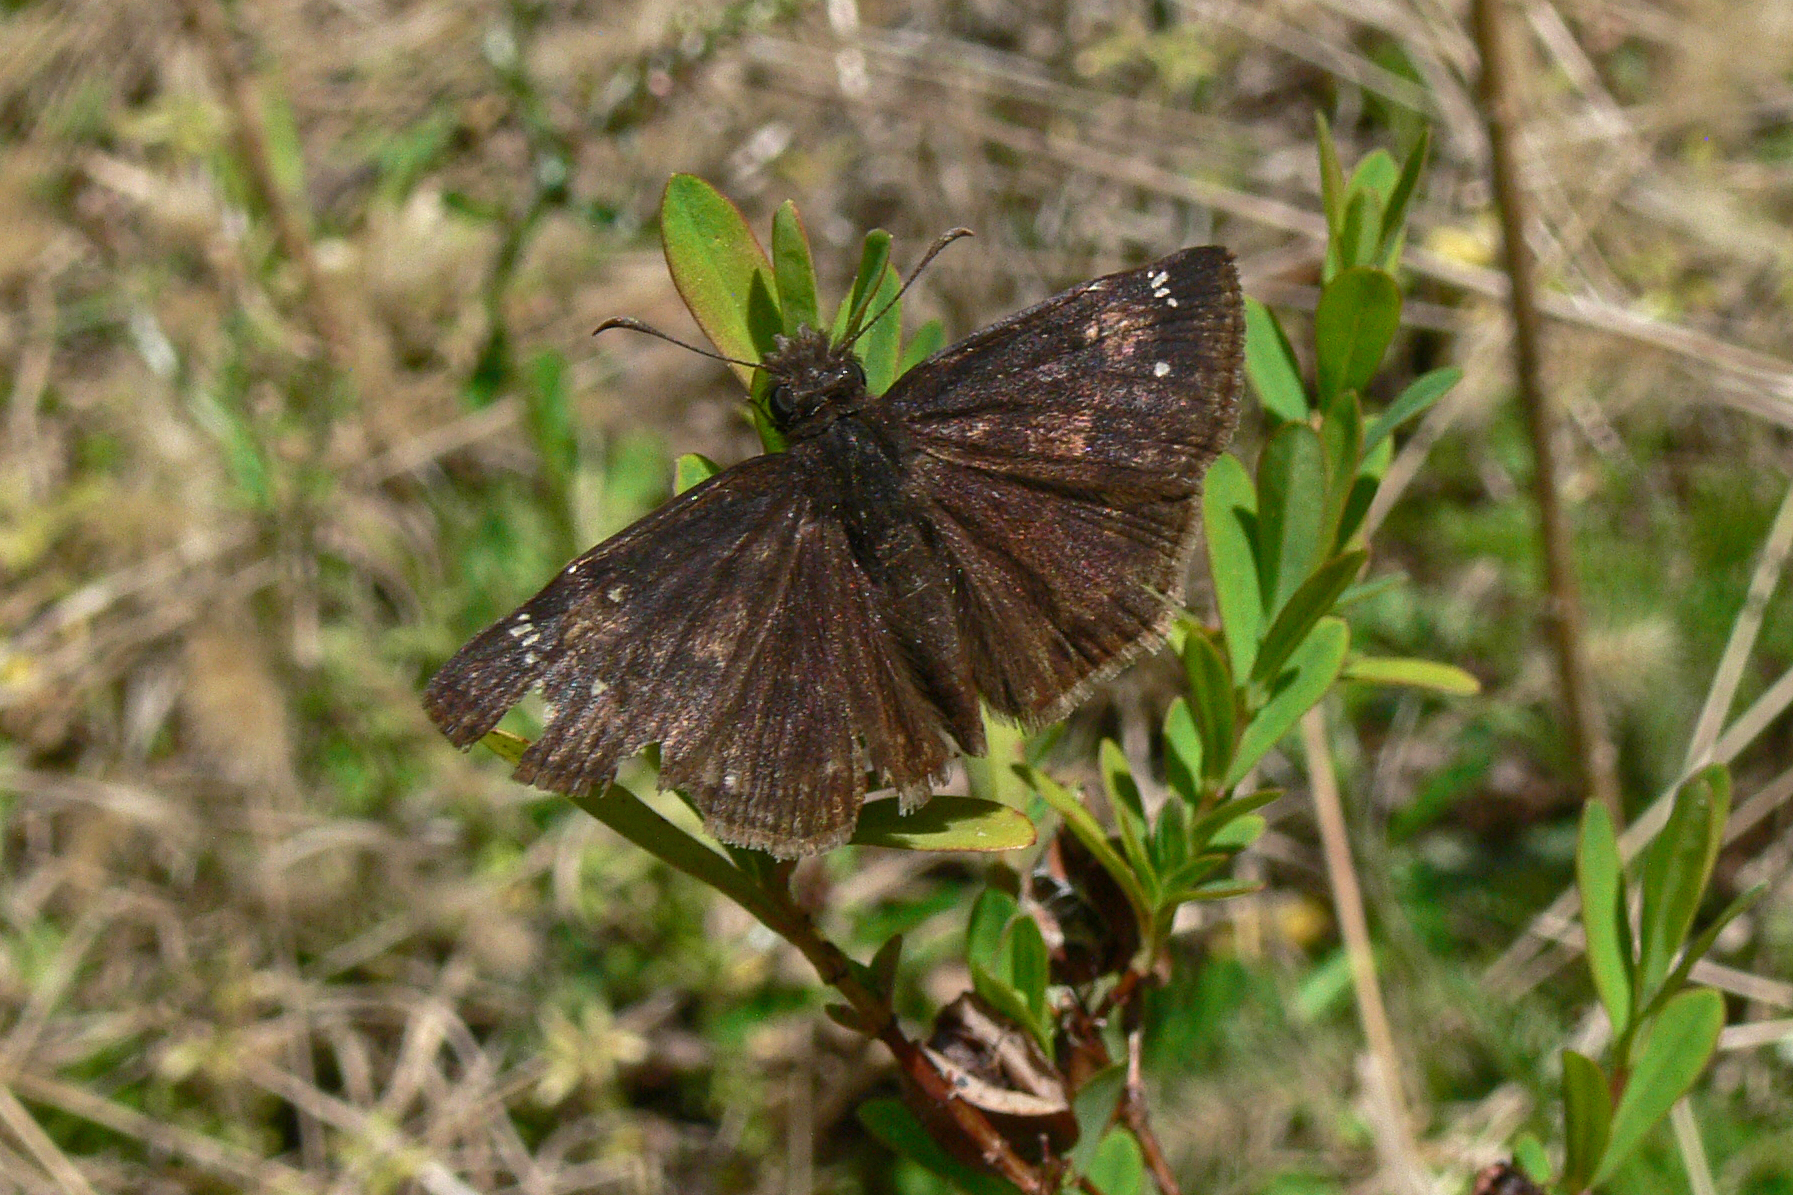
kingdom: Animalia
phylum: Arthropoda
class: Insecta
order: Lepidoptera
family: Hesperiidae
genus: Erynnis
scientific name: Erynnis zarucco
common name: Zarucco duskywing
